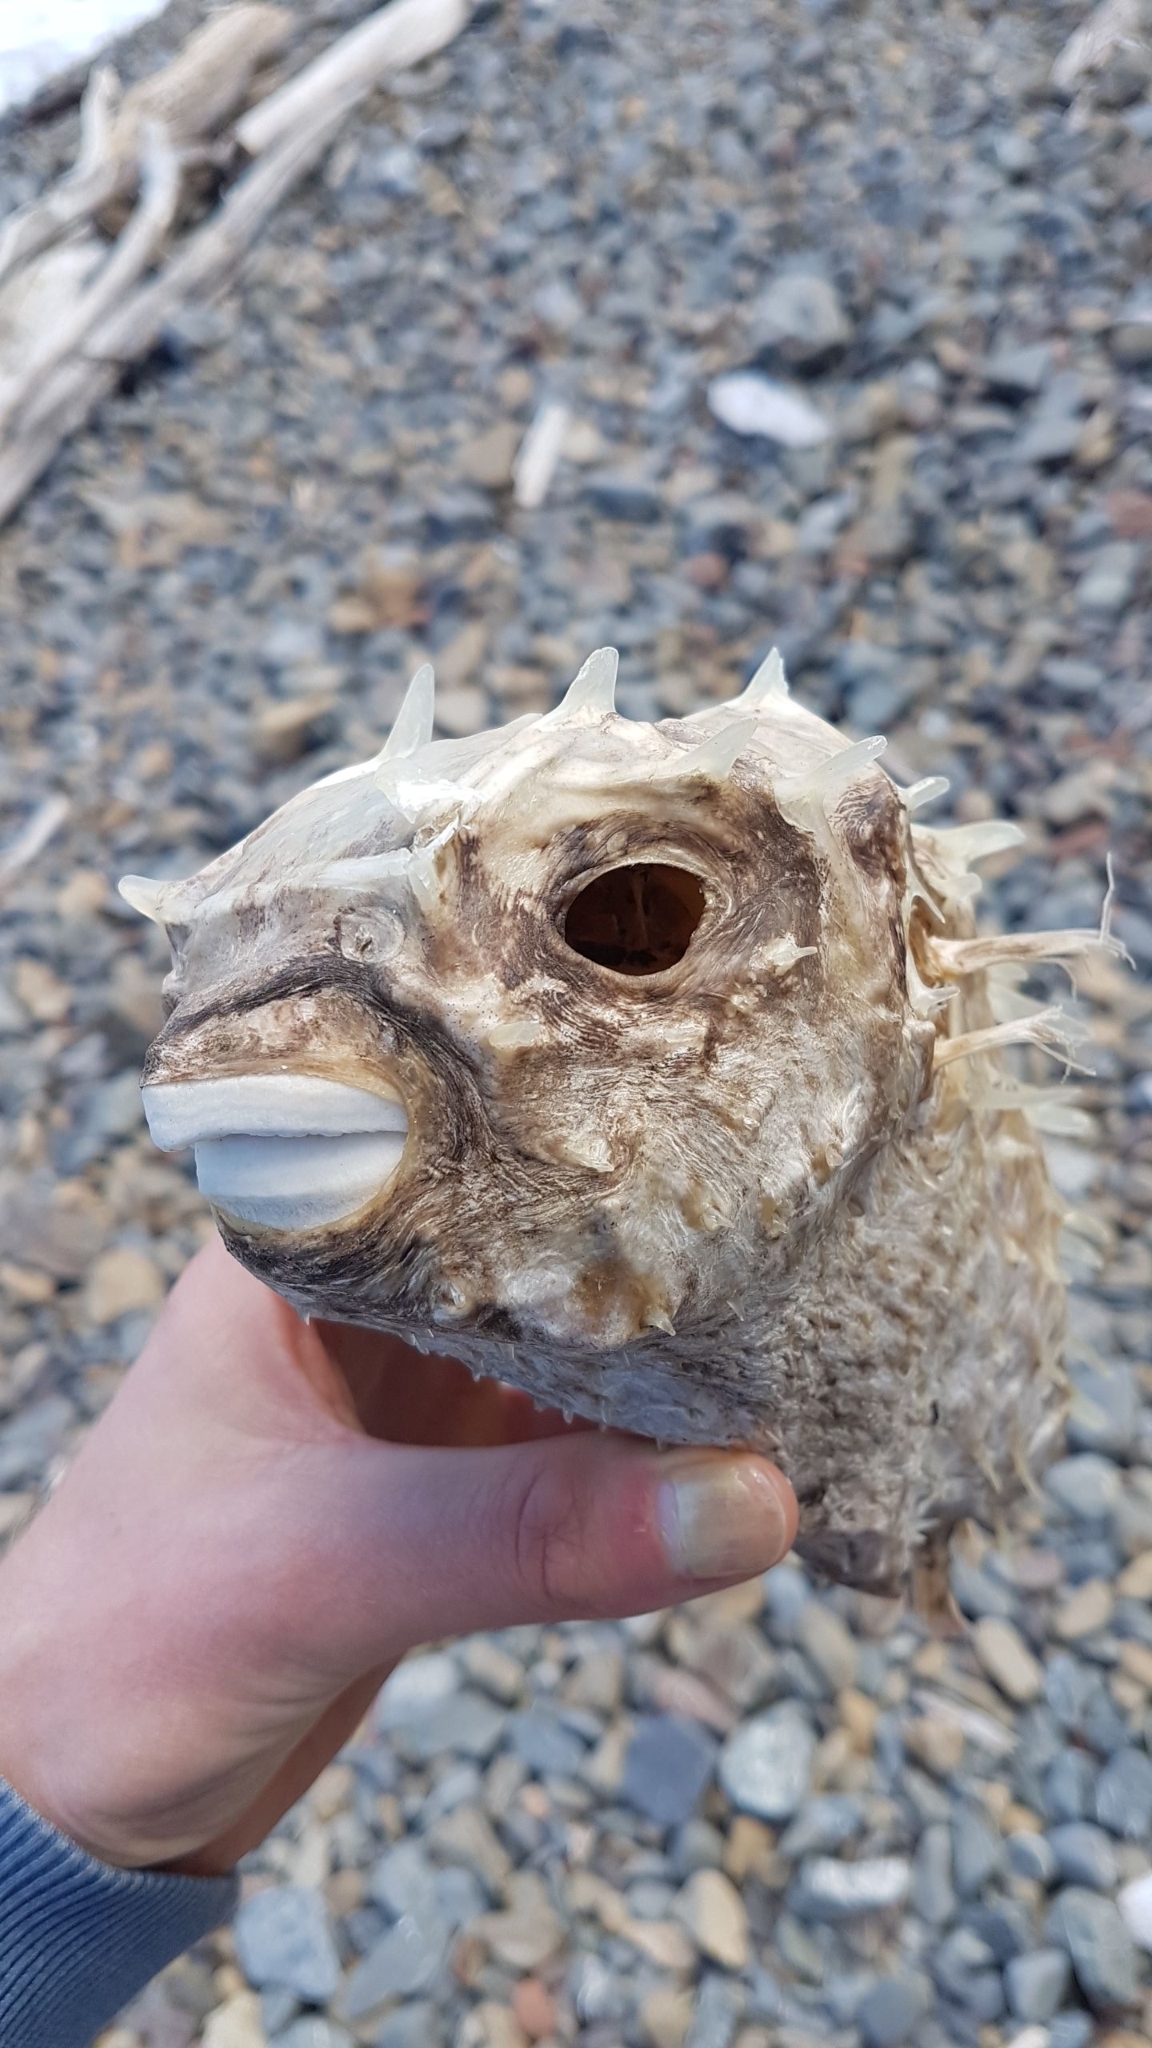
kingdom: Animalia
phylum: Chordata
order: Tetraodontiformes
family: Diodontidae
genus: Allomycterus
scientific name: Allomycterus pilatus
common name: No common name
